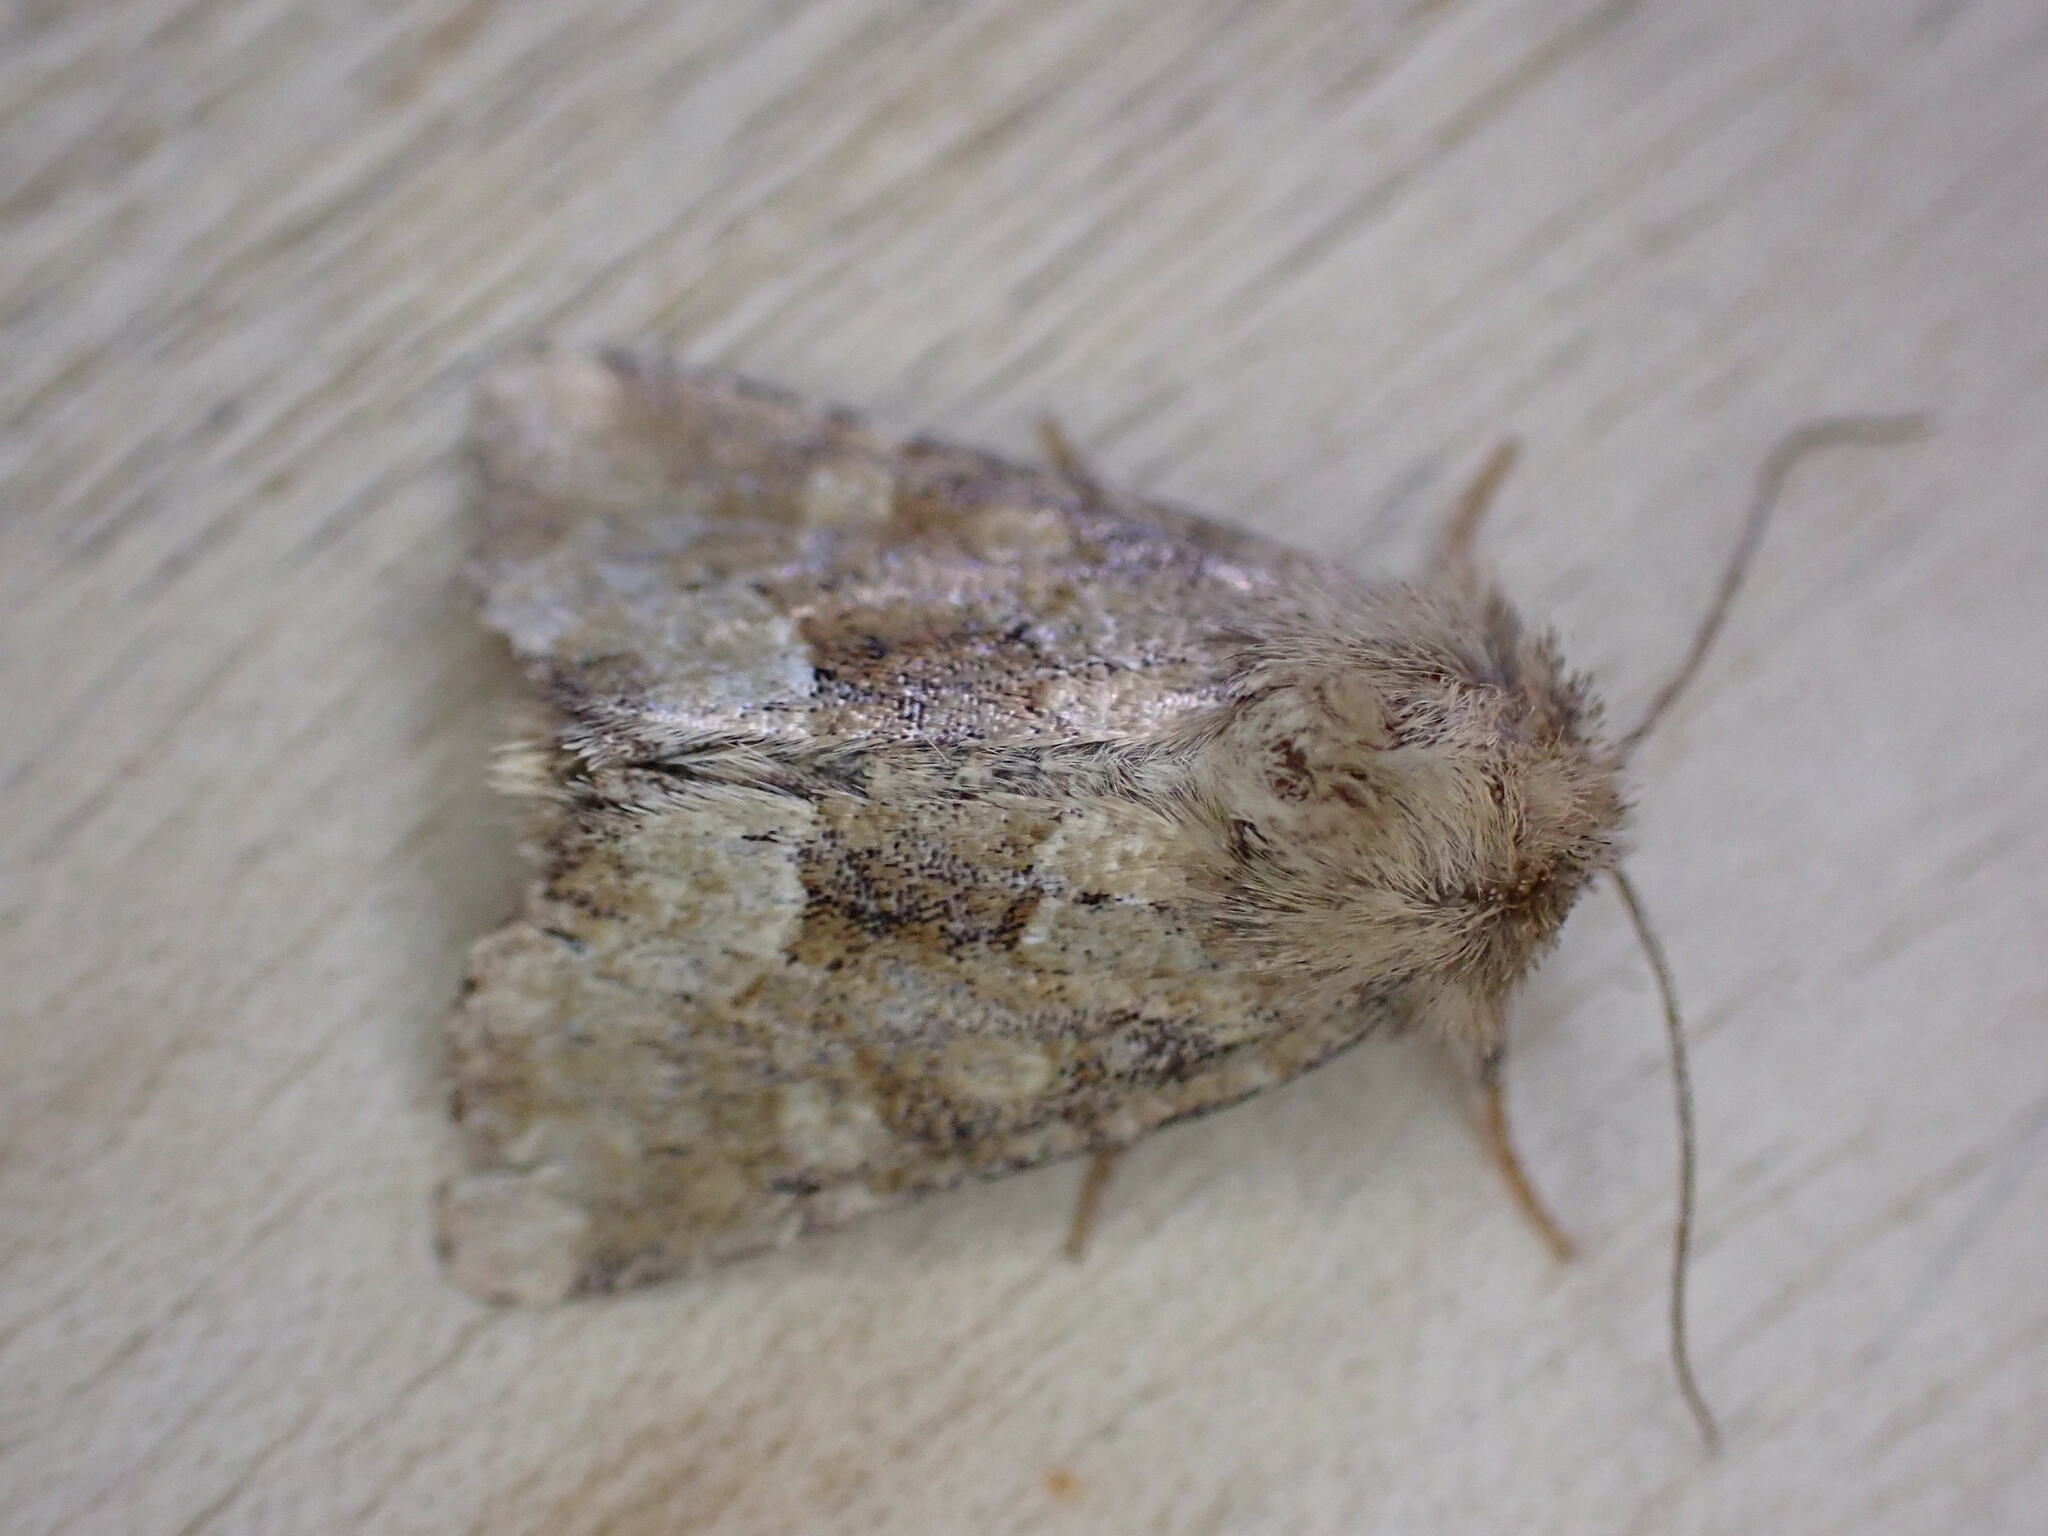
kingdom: Animalia
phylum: Arthropoda
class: Insecta
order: Lepidoptera
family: Noctuidae
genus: Oligia
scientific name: Oligia fasciuncula
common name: Middle-barred minor
